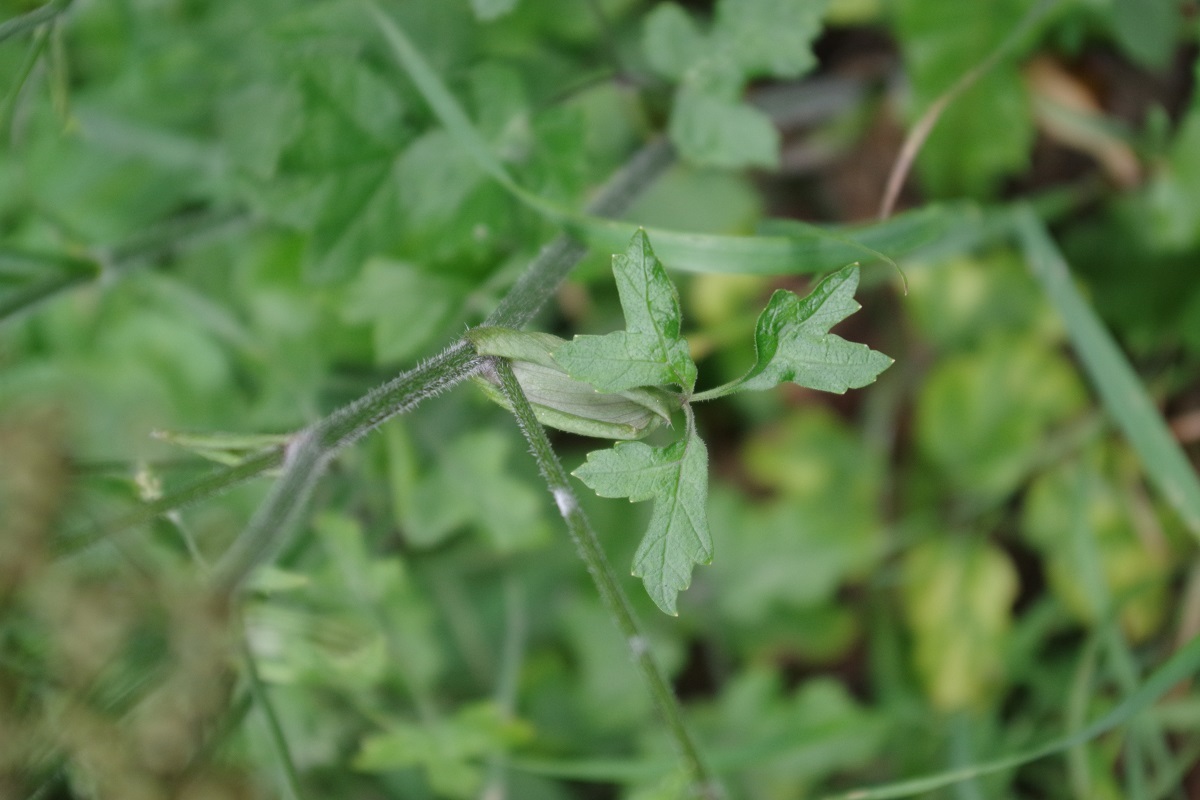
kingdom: Plantae
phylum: Tracheophyta
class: Magnoliopsida
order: Apiales
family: Apiaceae
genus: Heracleum
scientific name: Heracleum sphondylium
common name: Hogweed
